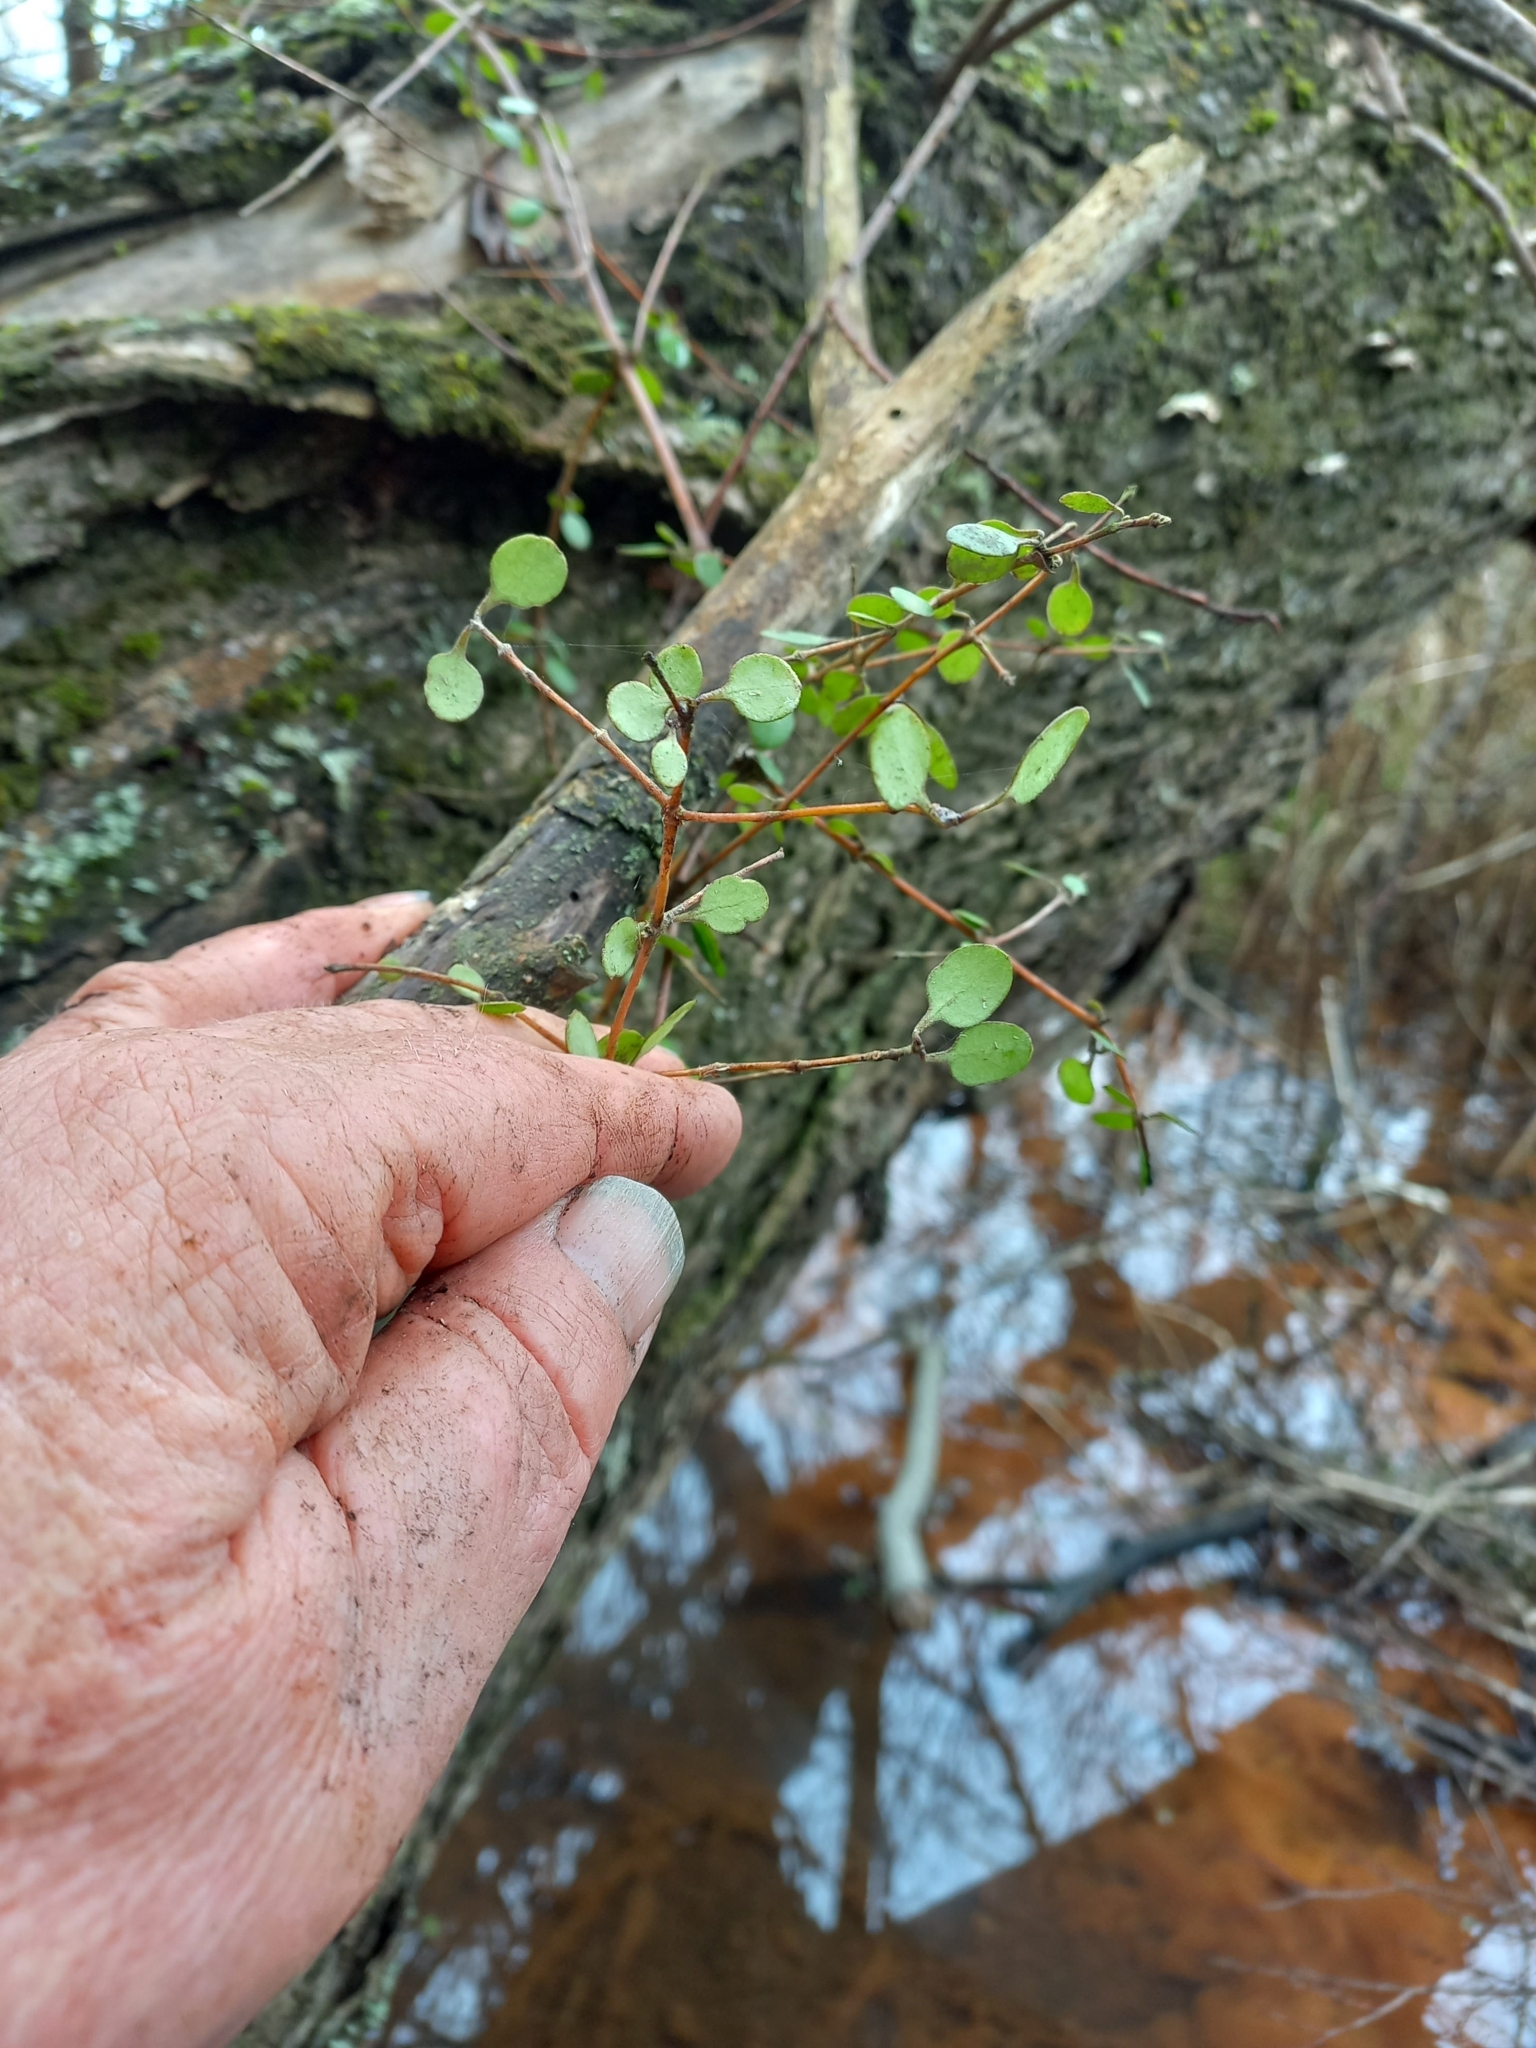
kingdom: Plantae
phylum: Tracheophyta
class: Magnoliopsida
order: Gentianales
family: Rubiaceae
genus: Coprosma
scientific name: Coprosma crassifolia
